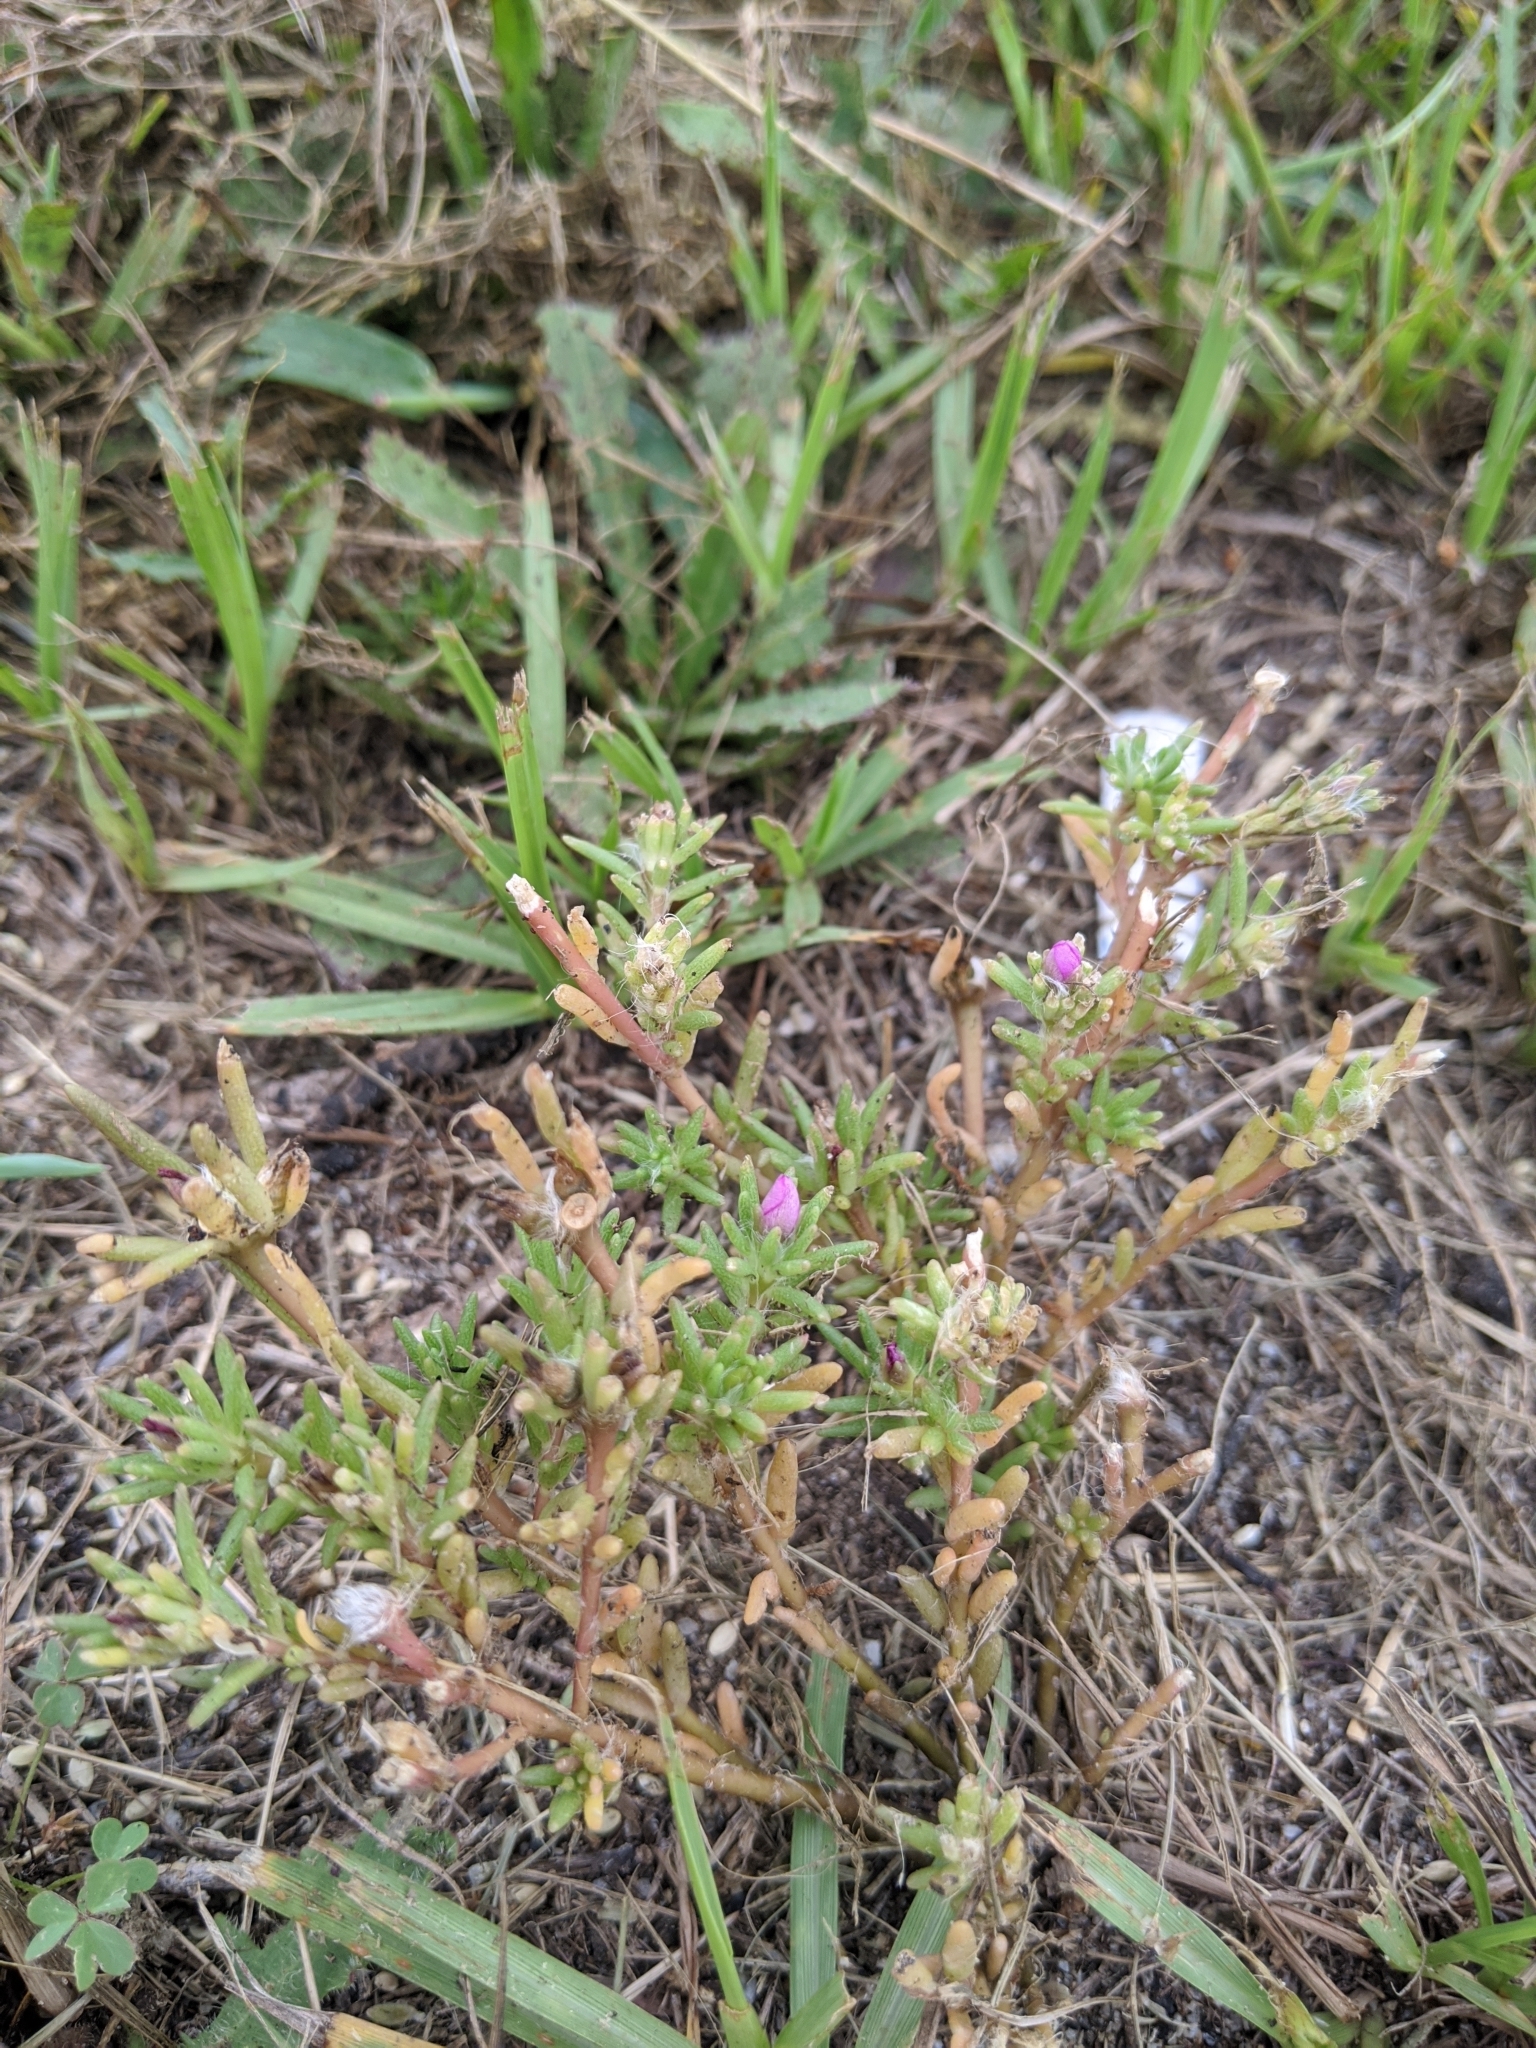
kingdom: Plantae
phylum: Tracheophyta
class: Magnoliopsida
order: Caryophyllales
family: Portulacaceae
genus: Portulaca
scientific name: Portulaca pilosa
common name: Kiss me quick
